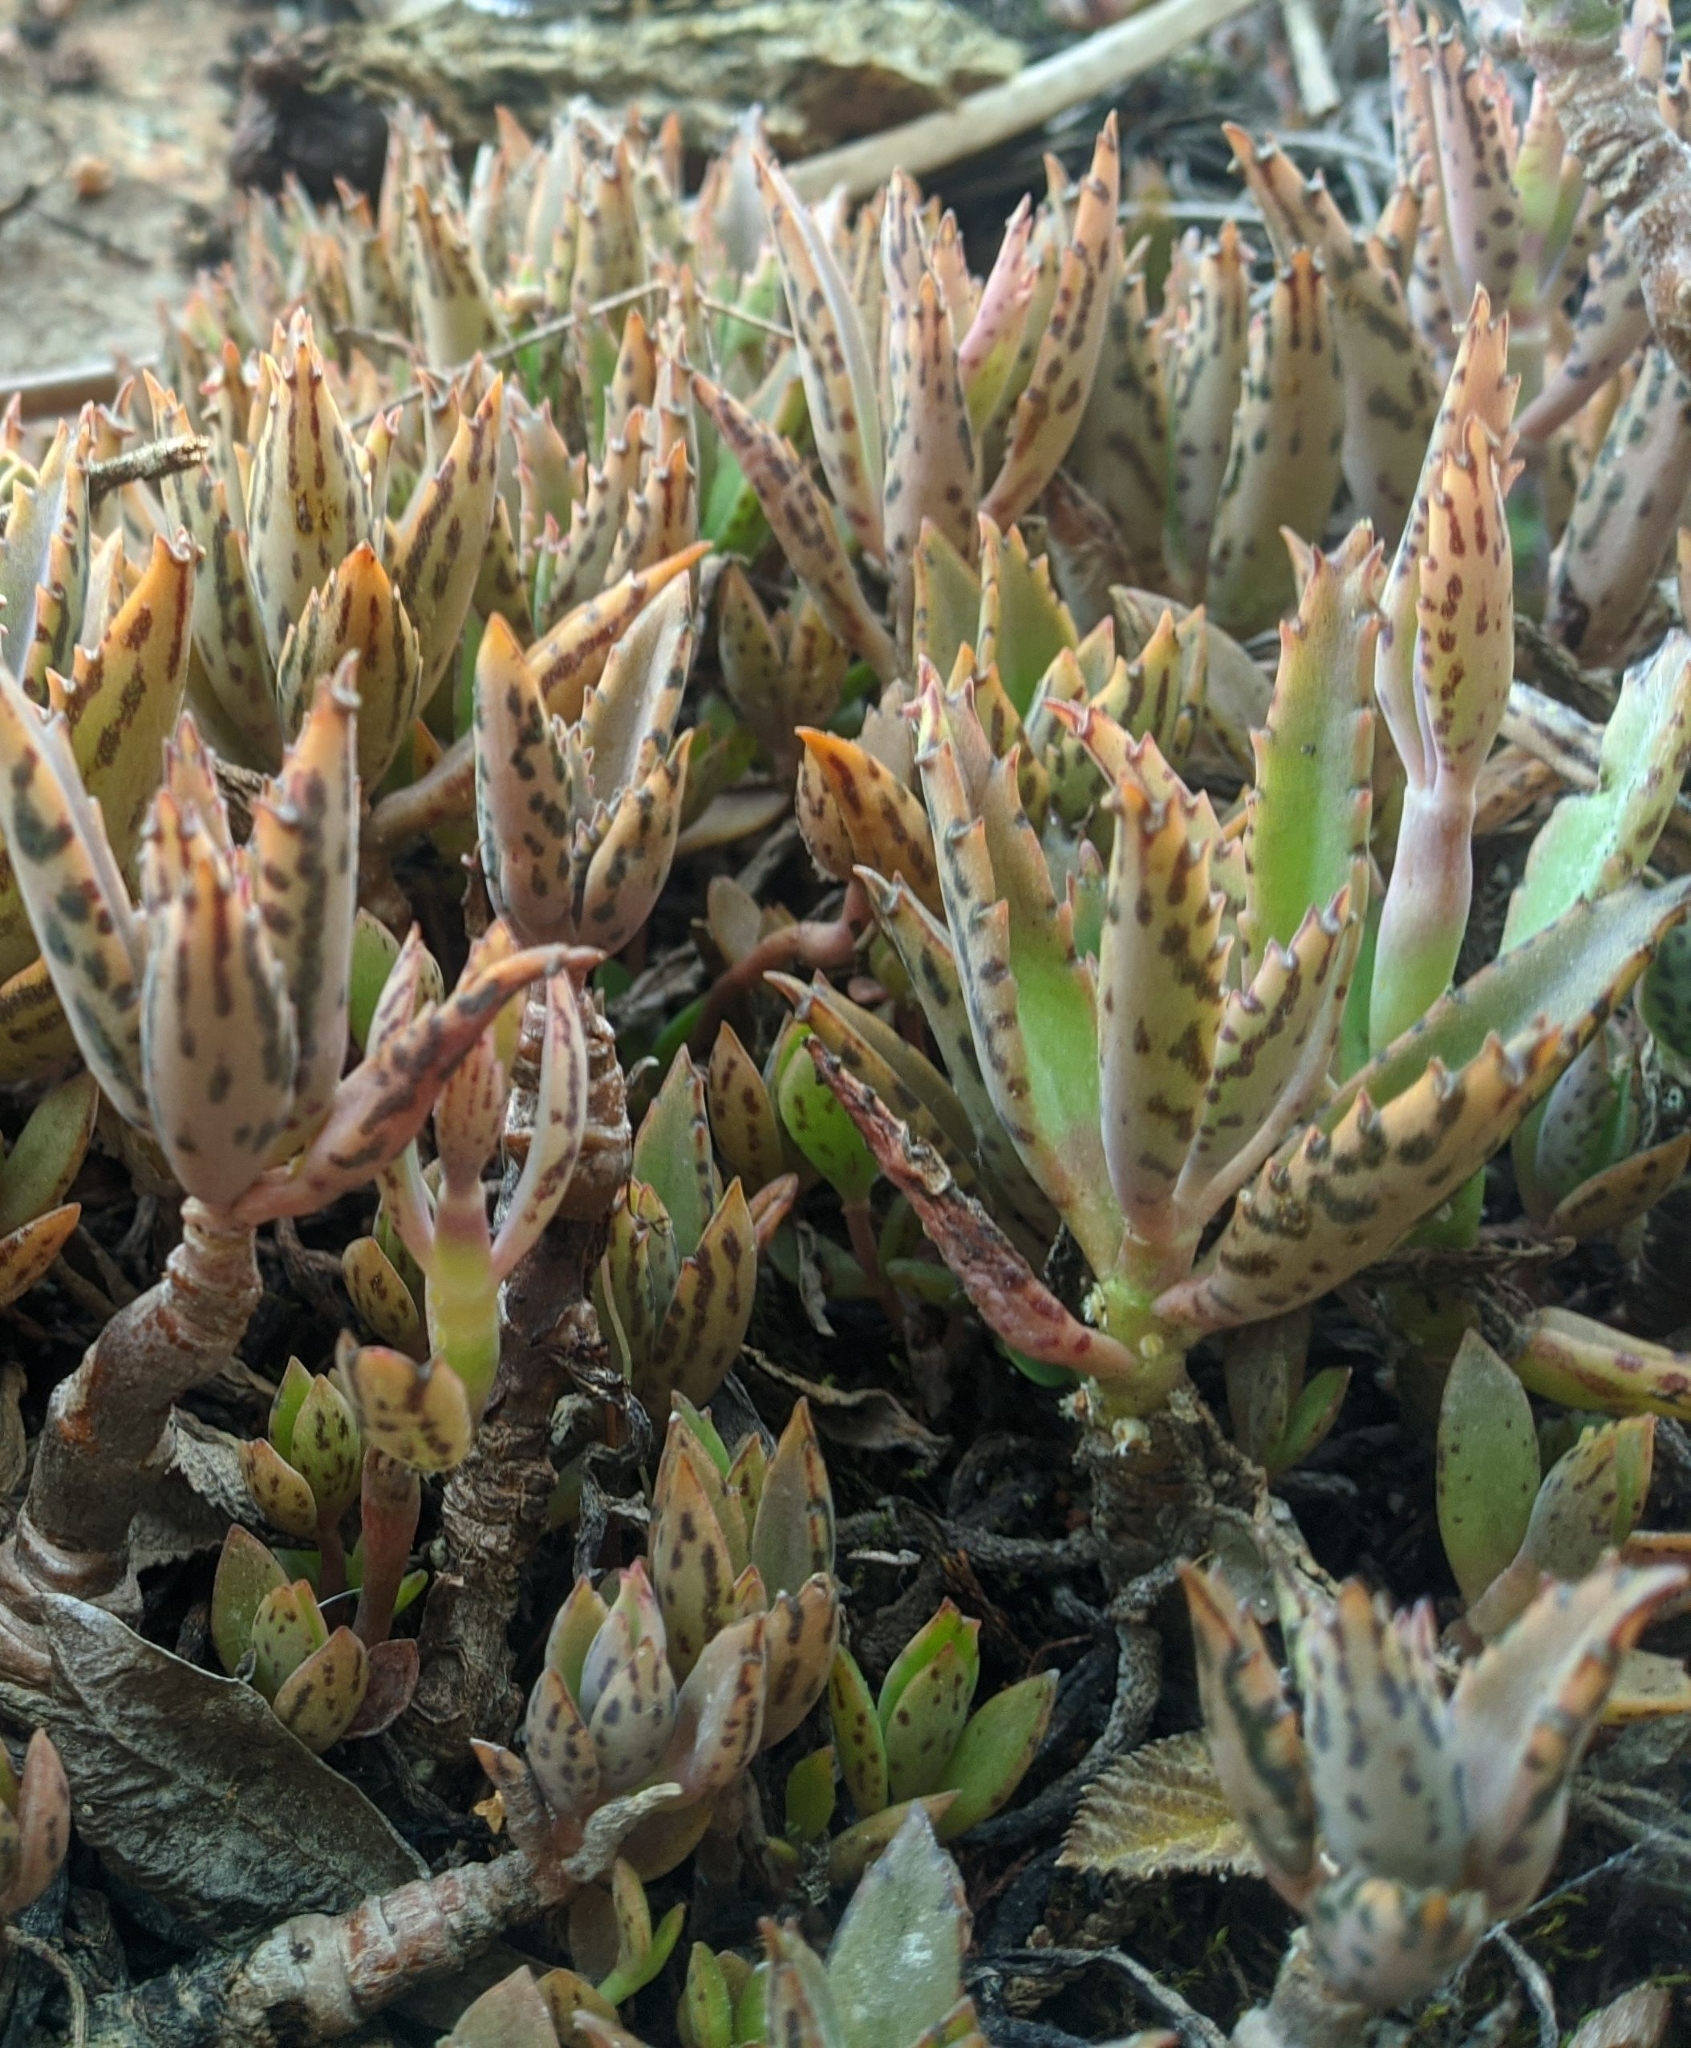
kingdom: Plantae
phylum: Tracheophyta
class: Magnoliopsida
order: Saxifragales
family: Crassulaceae
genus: Kalanchoe
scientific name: Kalanchoe houghtonii
